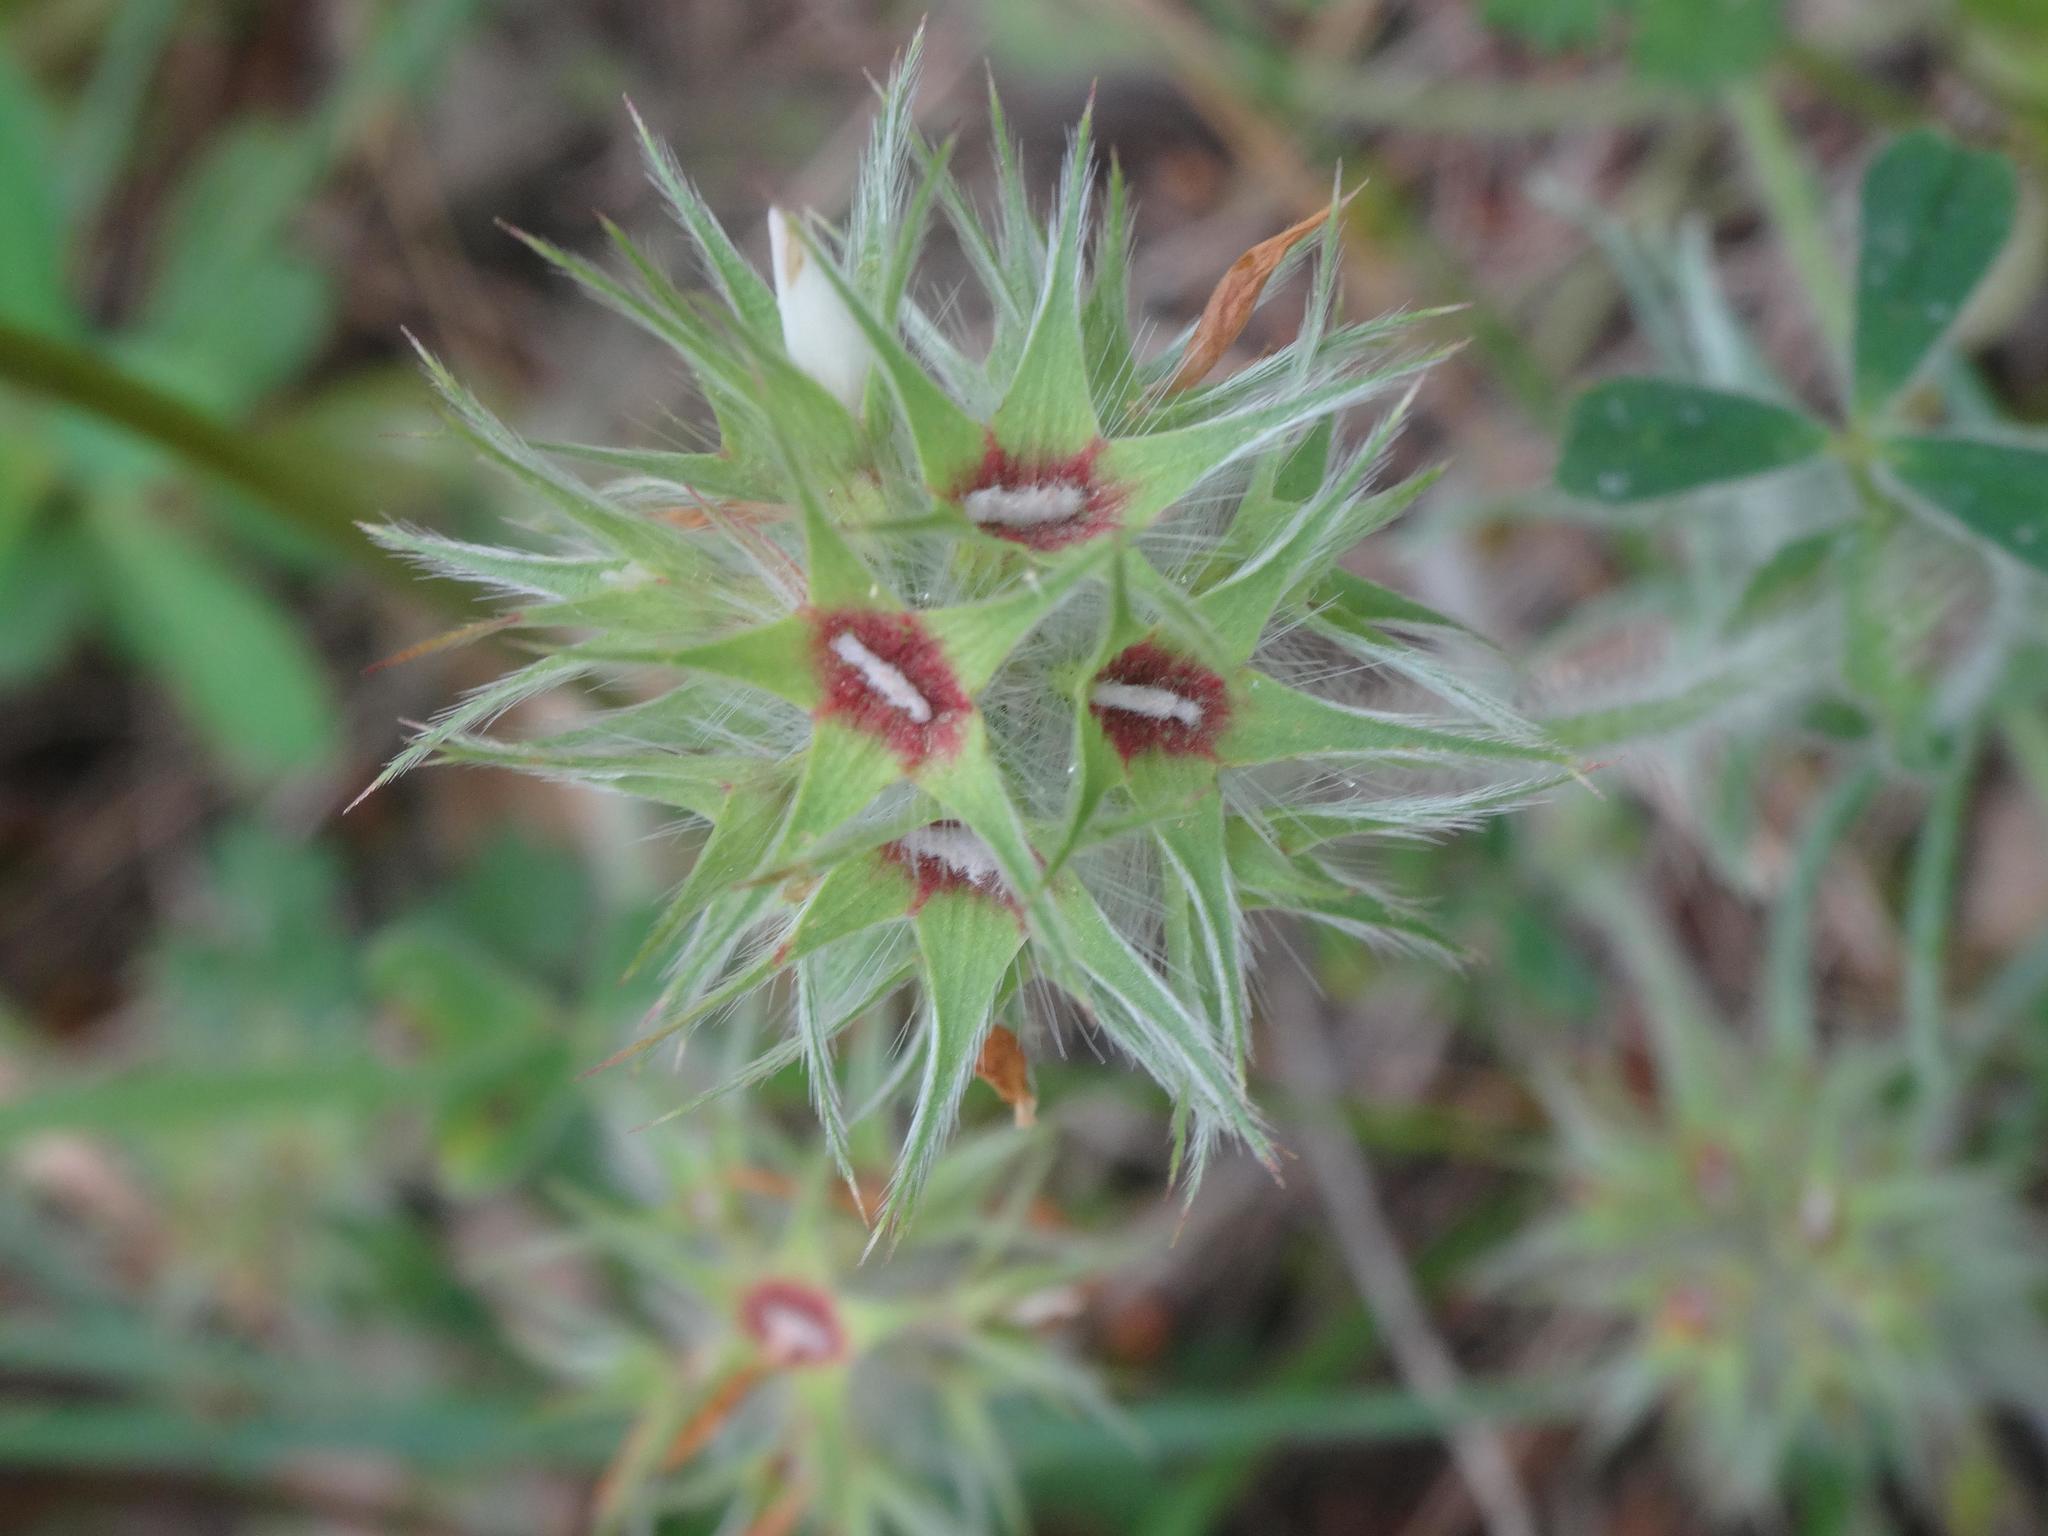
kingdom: Plantae
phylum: Tracheophyta
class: Magnoliopsida
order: Fabales
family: Fabaceae
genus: Trifolium
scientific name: Trifolium stellatum
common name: Starry clover
